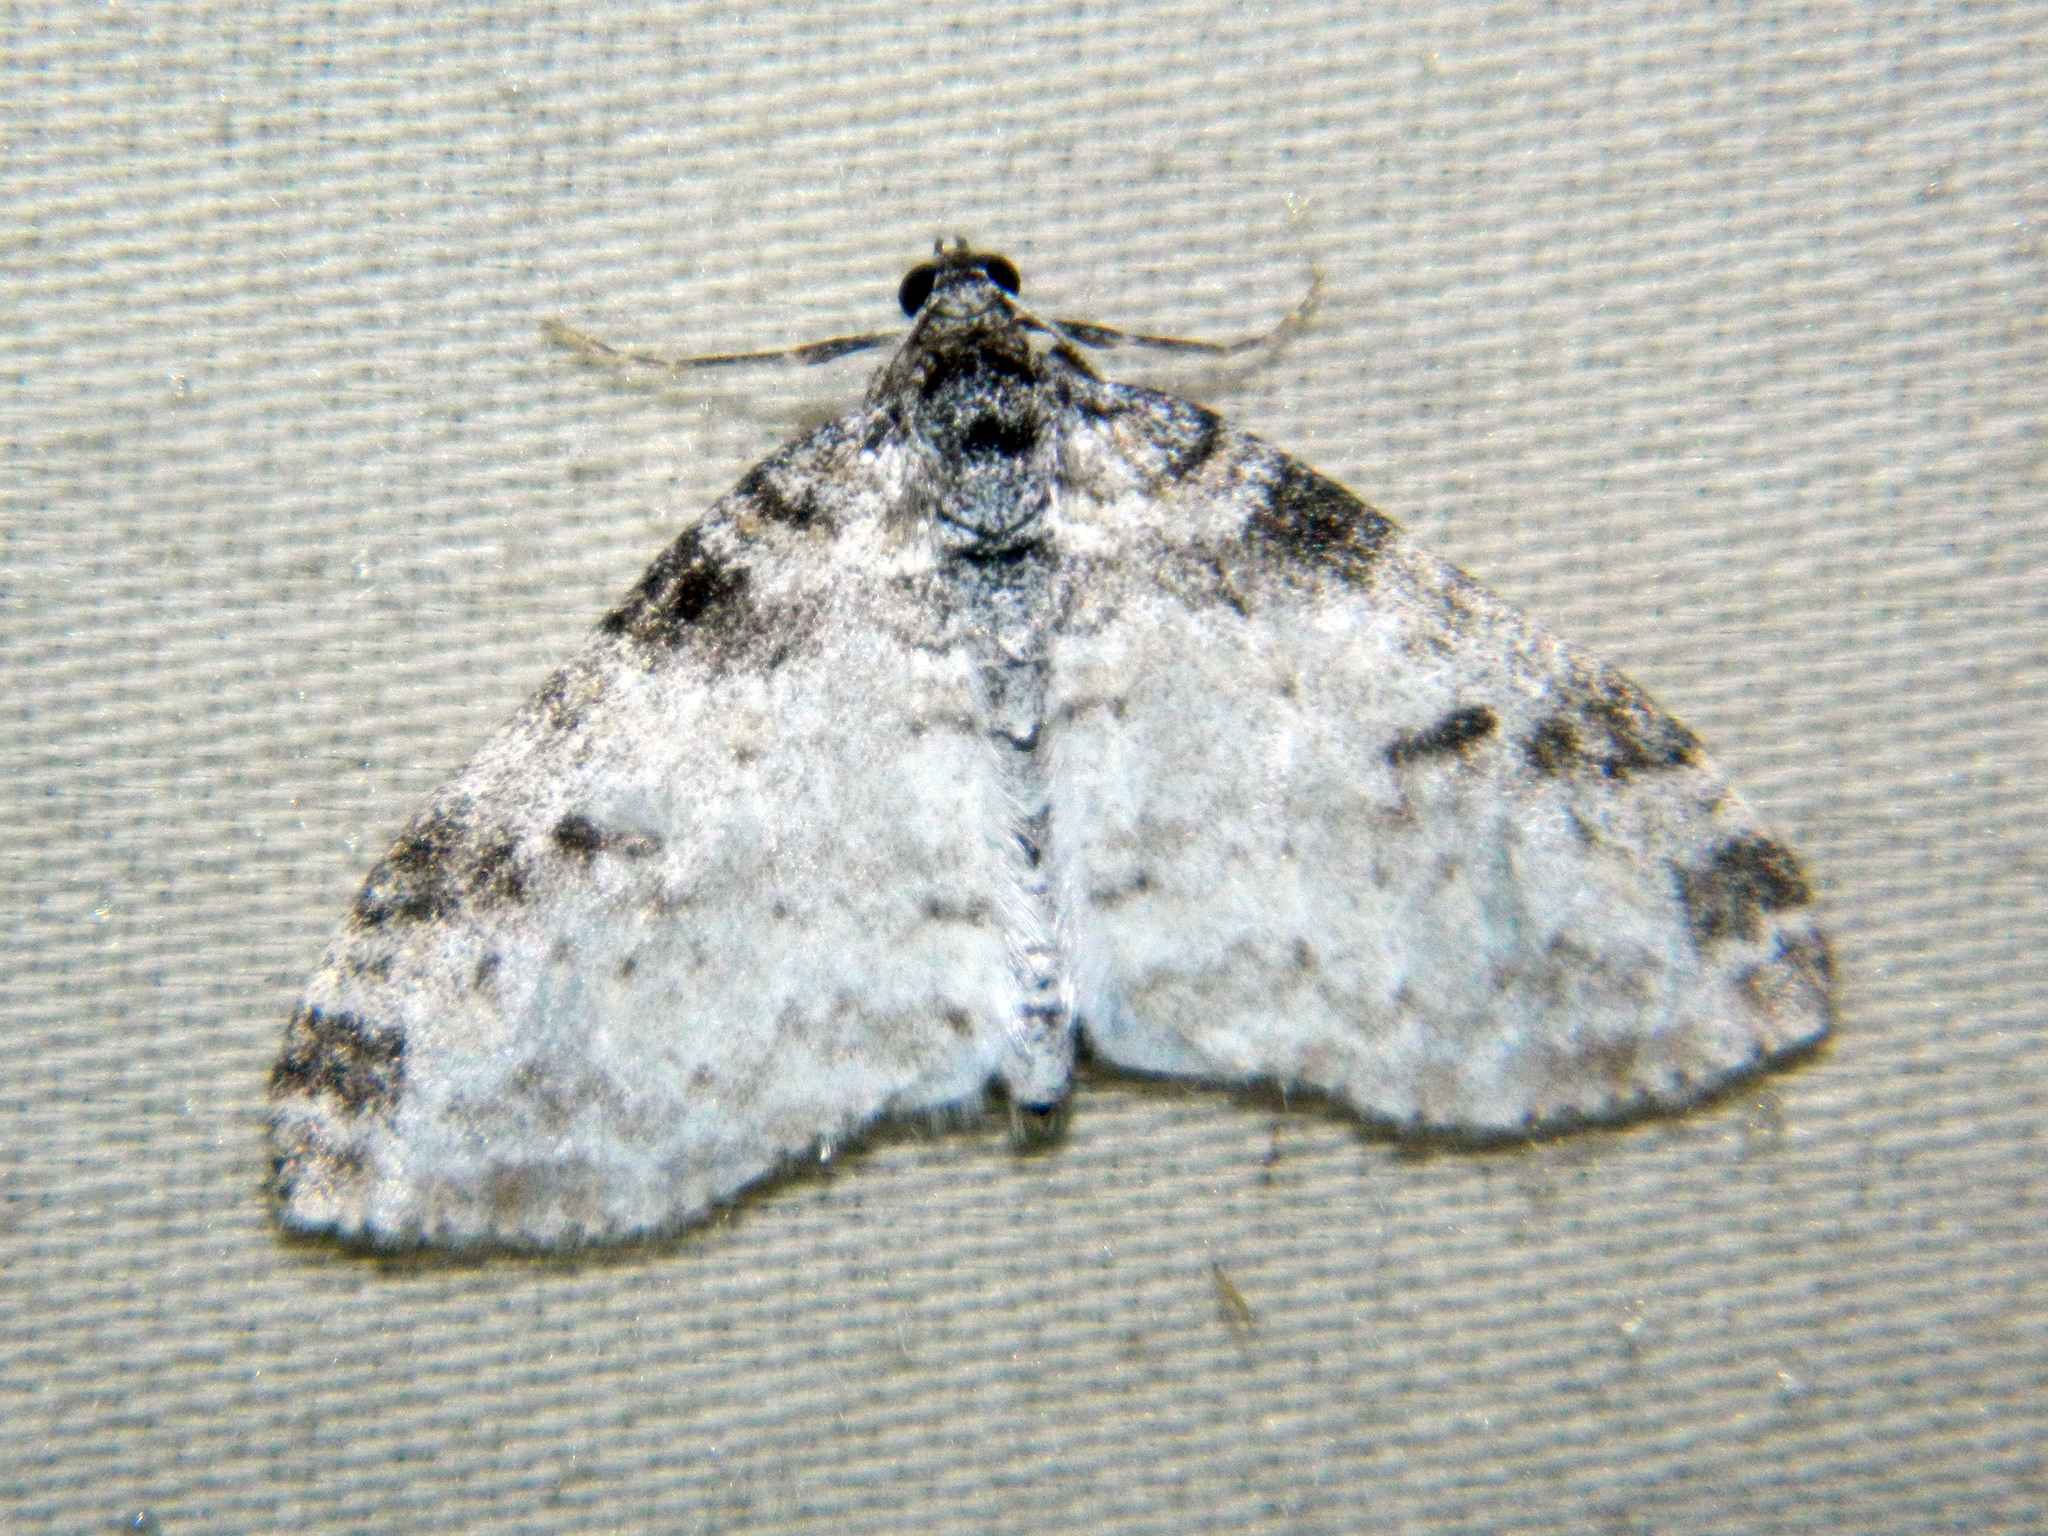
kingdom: Animalia
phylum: Arthropoda
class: Insecta
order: Lepidoptera
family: Geometridae
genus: Lobophora
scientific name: Lobophora nivigerata
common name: Powdered bigwing
